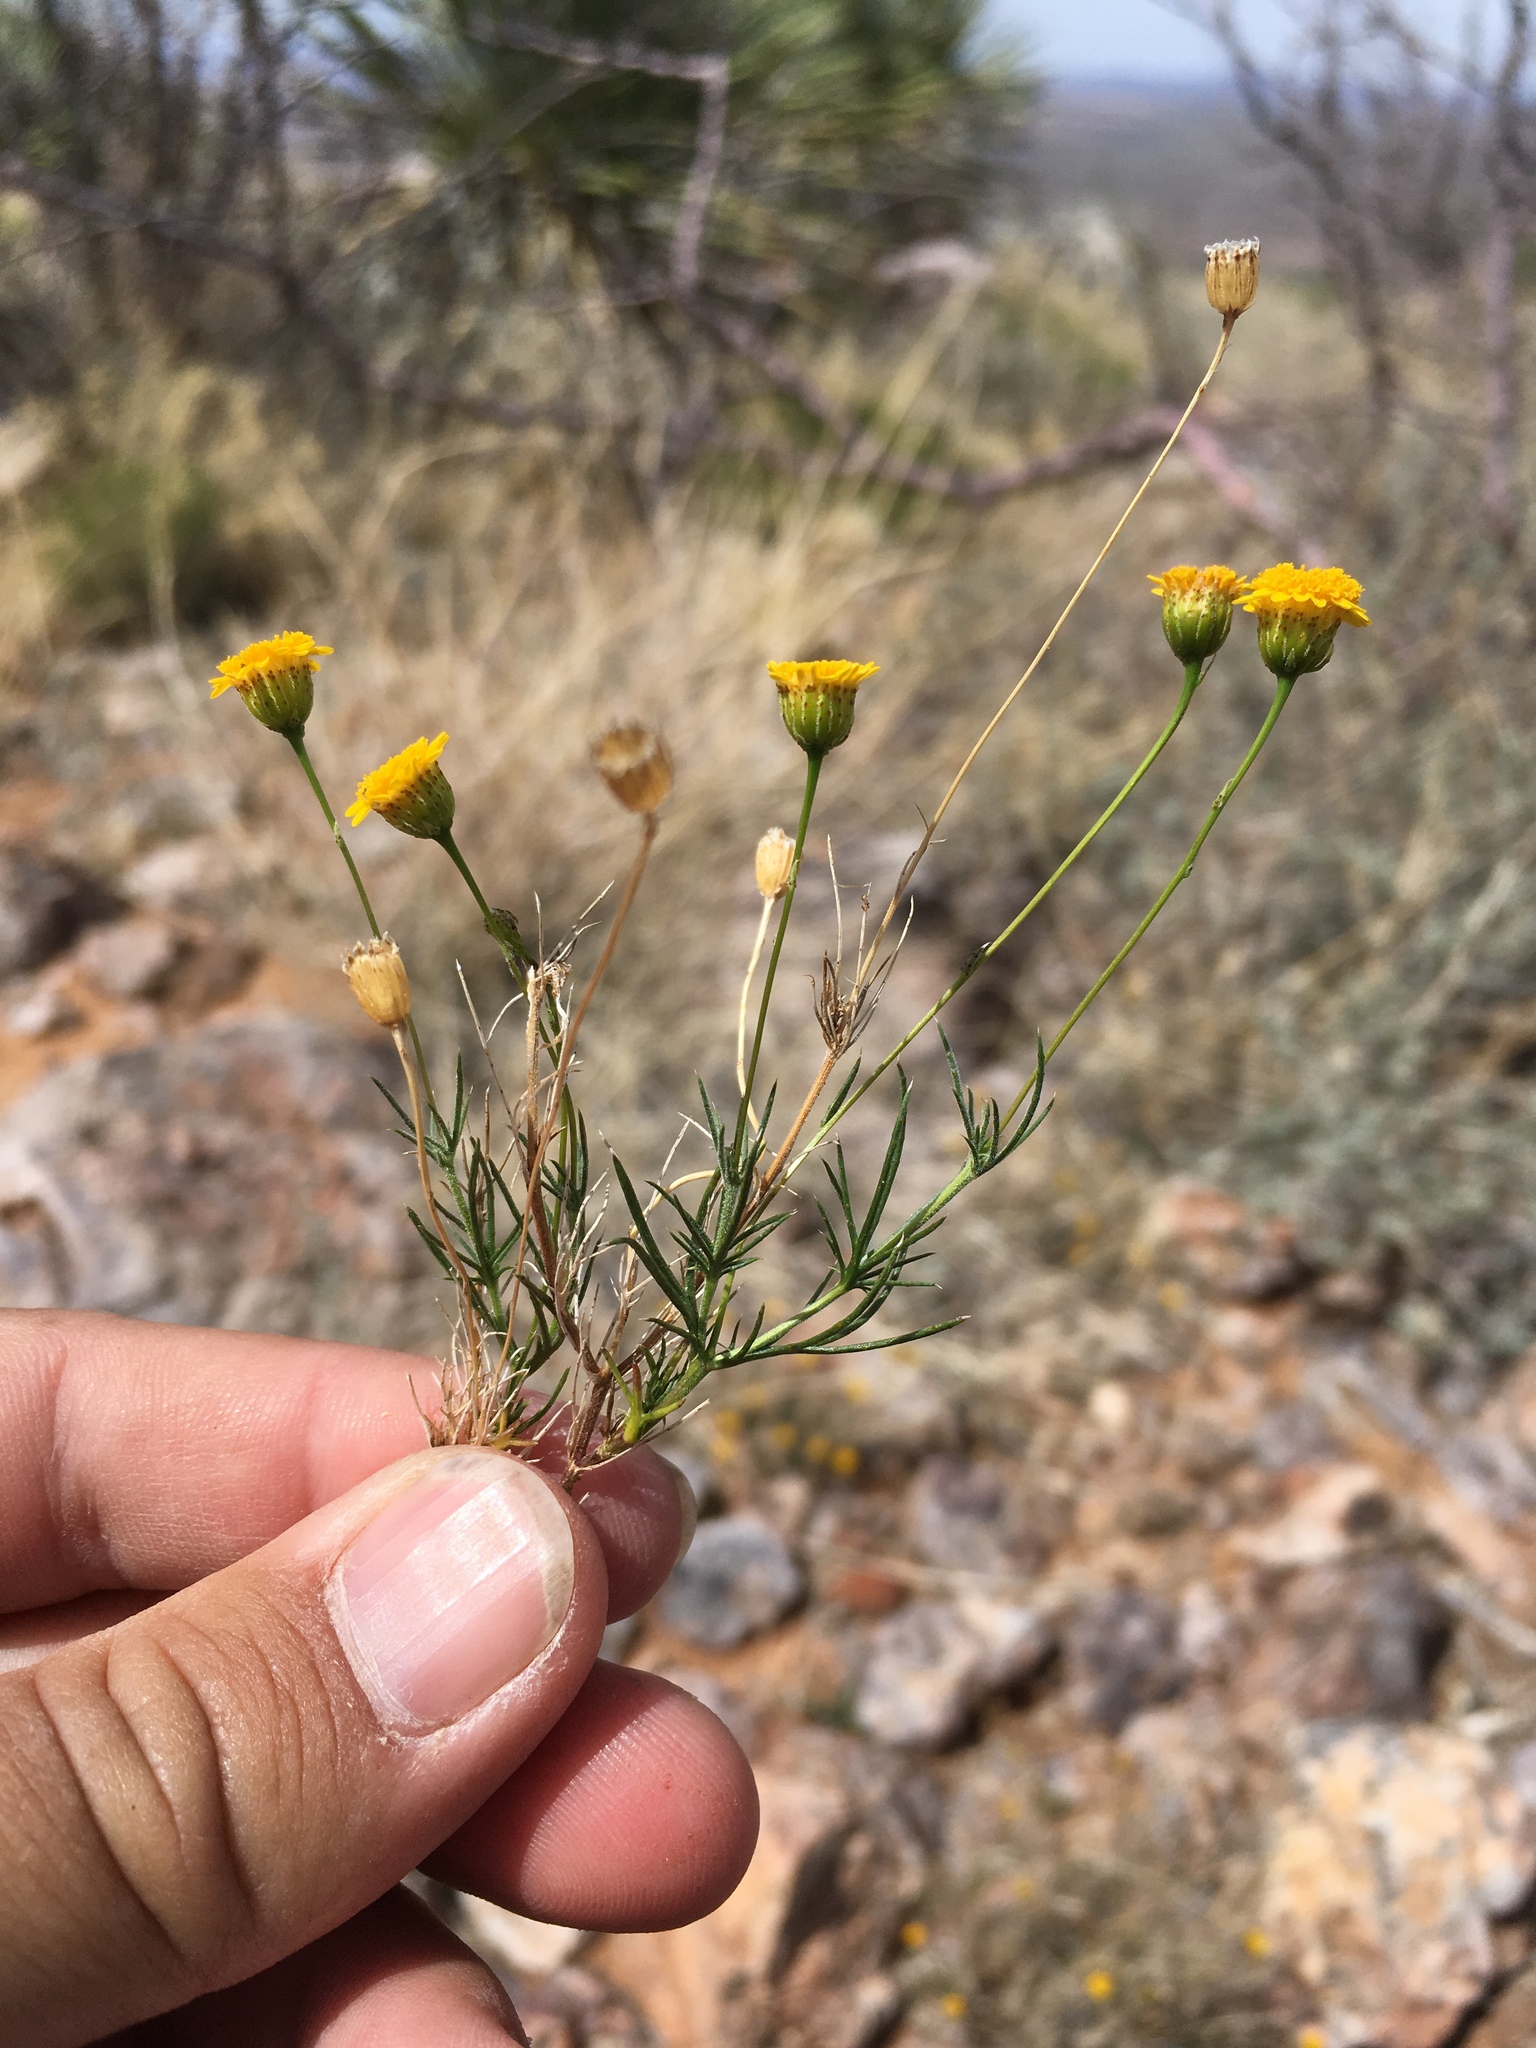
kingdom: Plantae
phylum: Tracheophyta
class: Magnoliopsida
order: Asterales
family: Asteraceae
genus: Thymophylla
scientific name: Thymophylla pentachaeta
